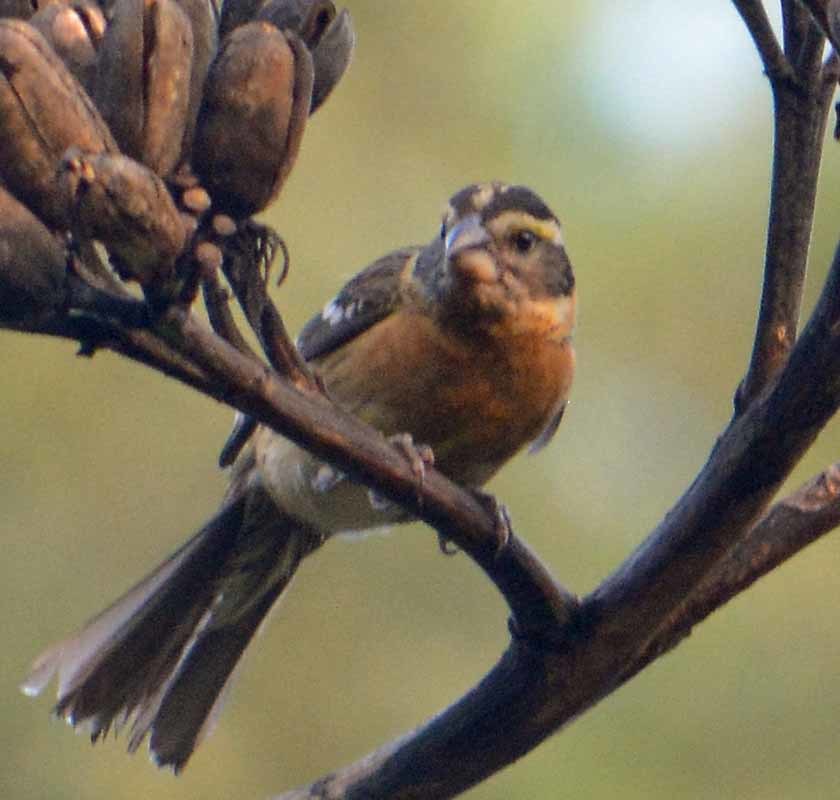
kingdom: Animalia
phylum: Chordata
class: Aves
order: Passeriformes
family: Cardinalidae
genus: Pheucticus
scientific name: Pheucticus melanocephalus
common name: Black-headed grosbeak
